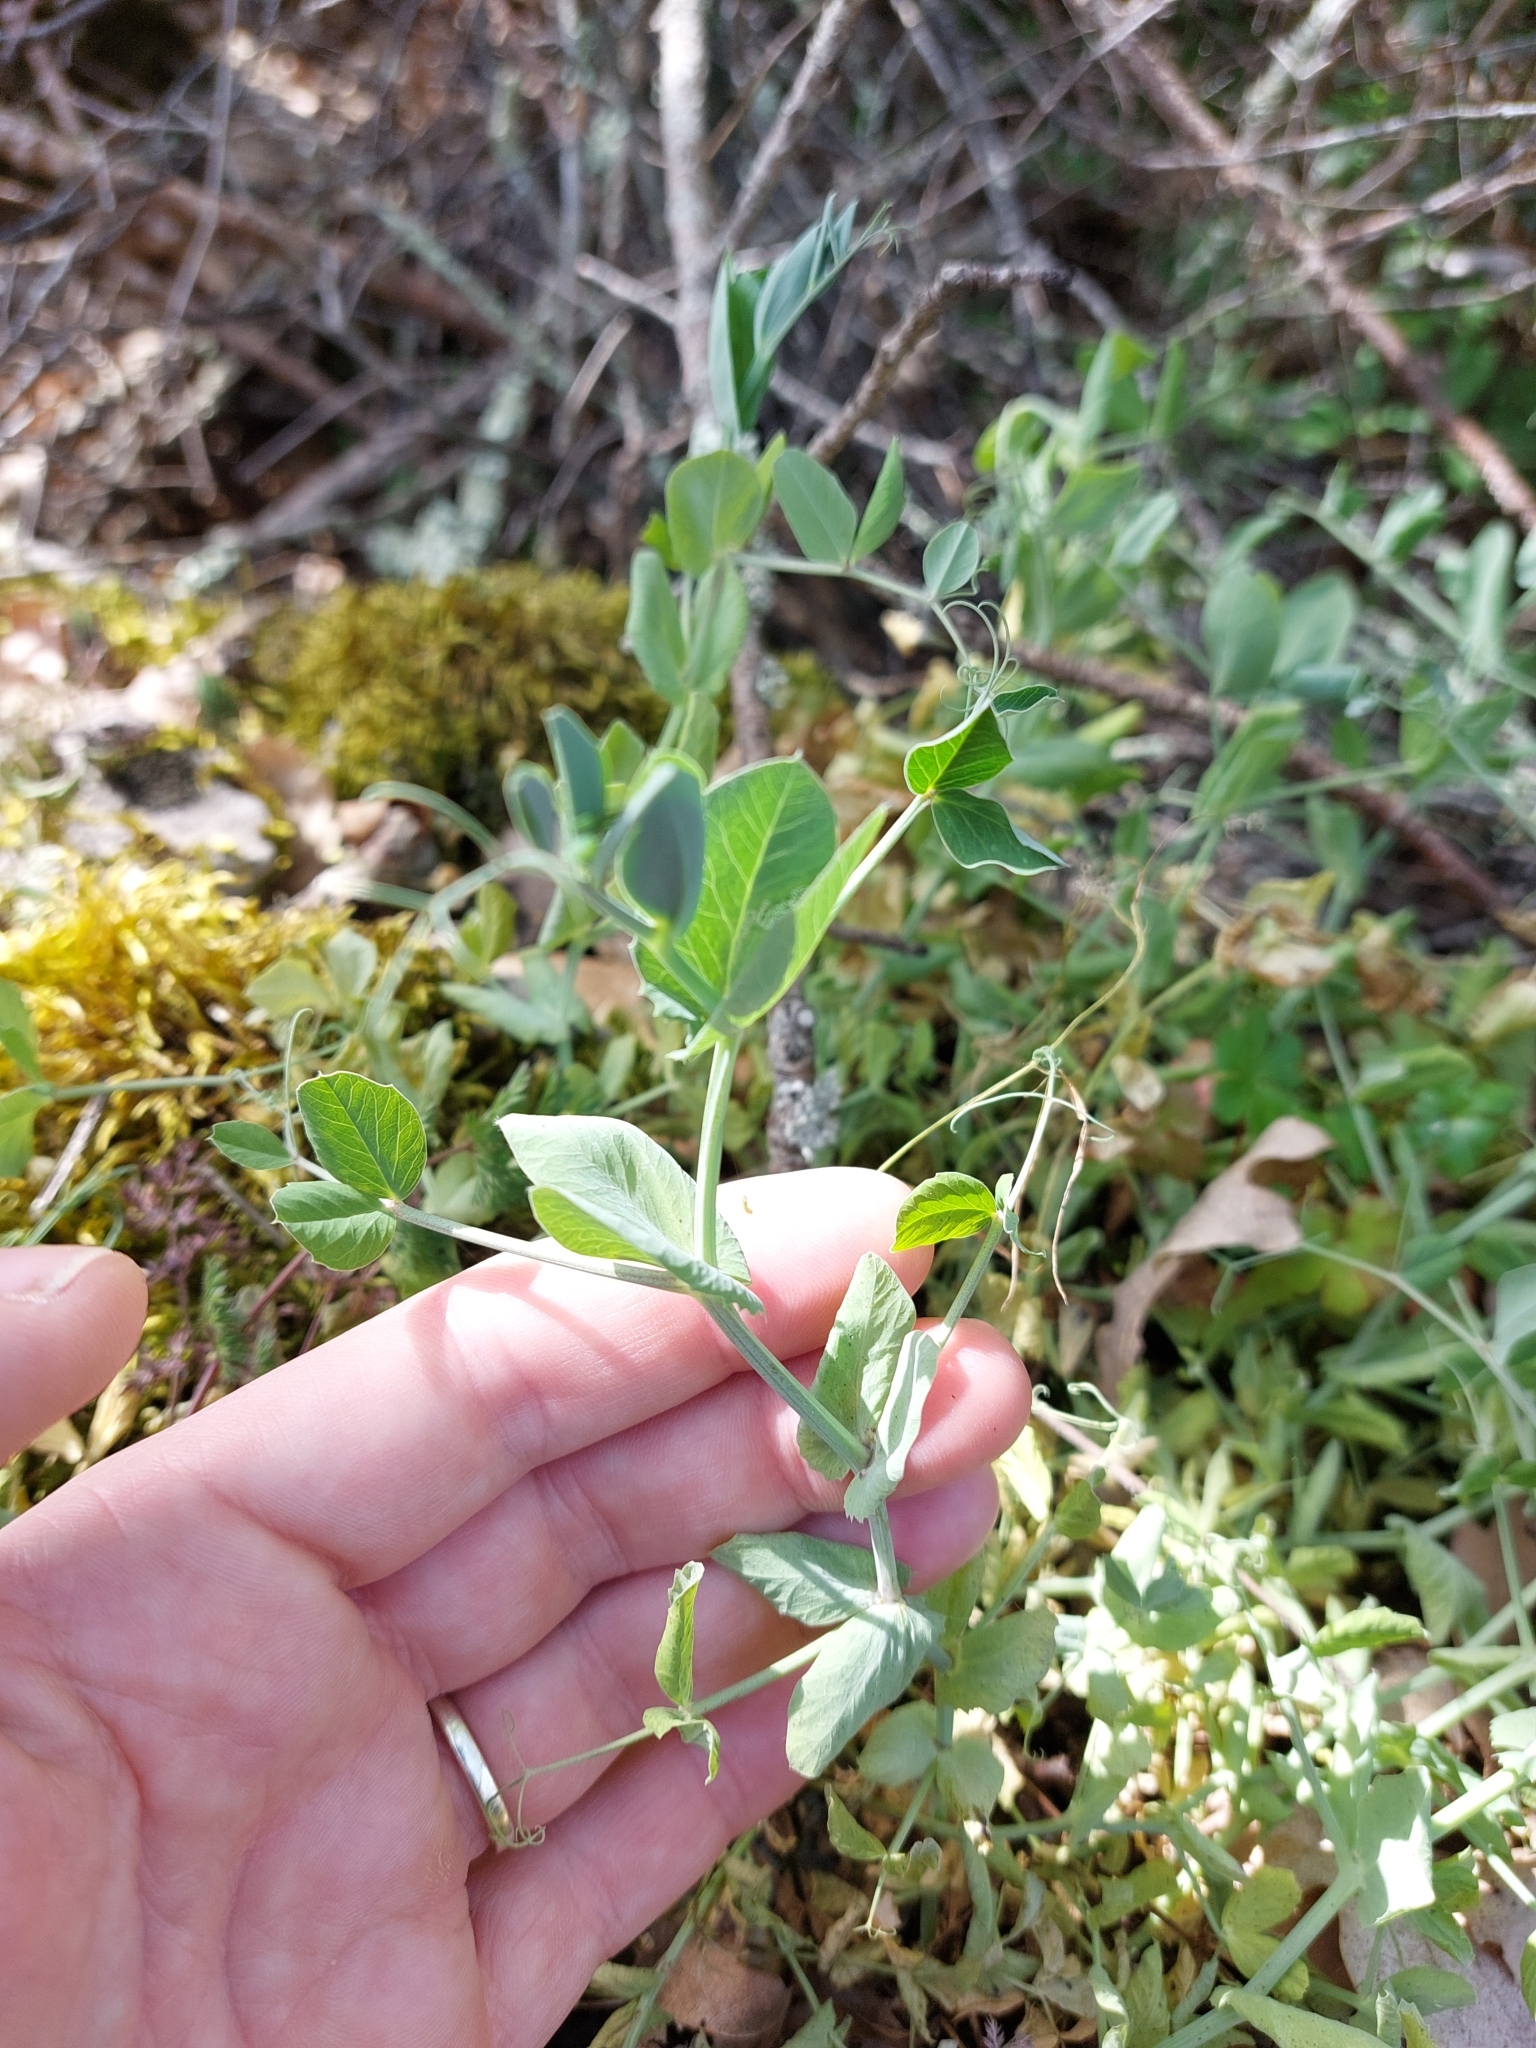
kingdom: Plantae
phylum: Tracheophyta
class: Magnoliopsida
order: Fabales
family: Fabaceae
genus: Lathyrus
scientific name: Lathyrus oleraceus
